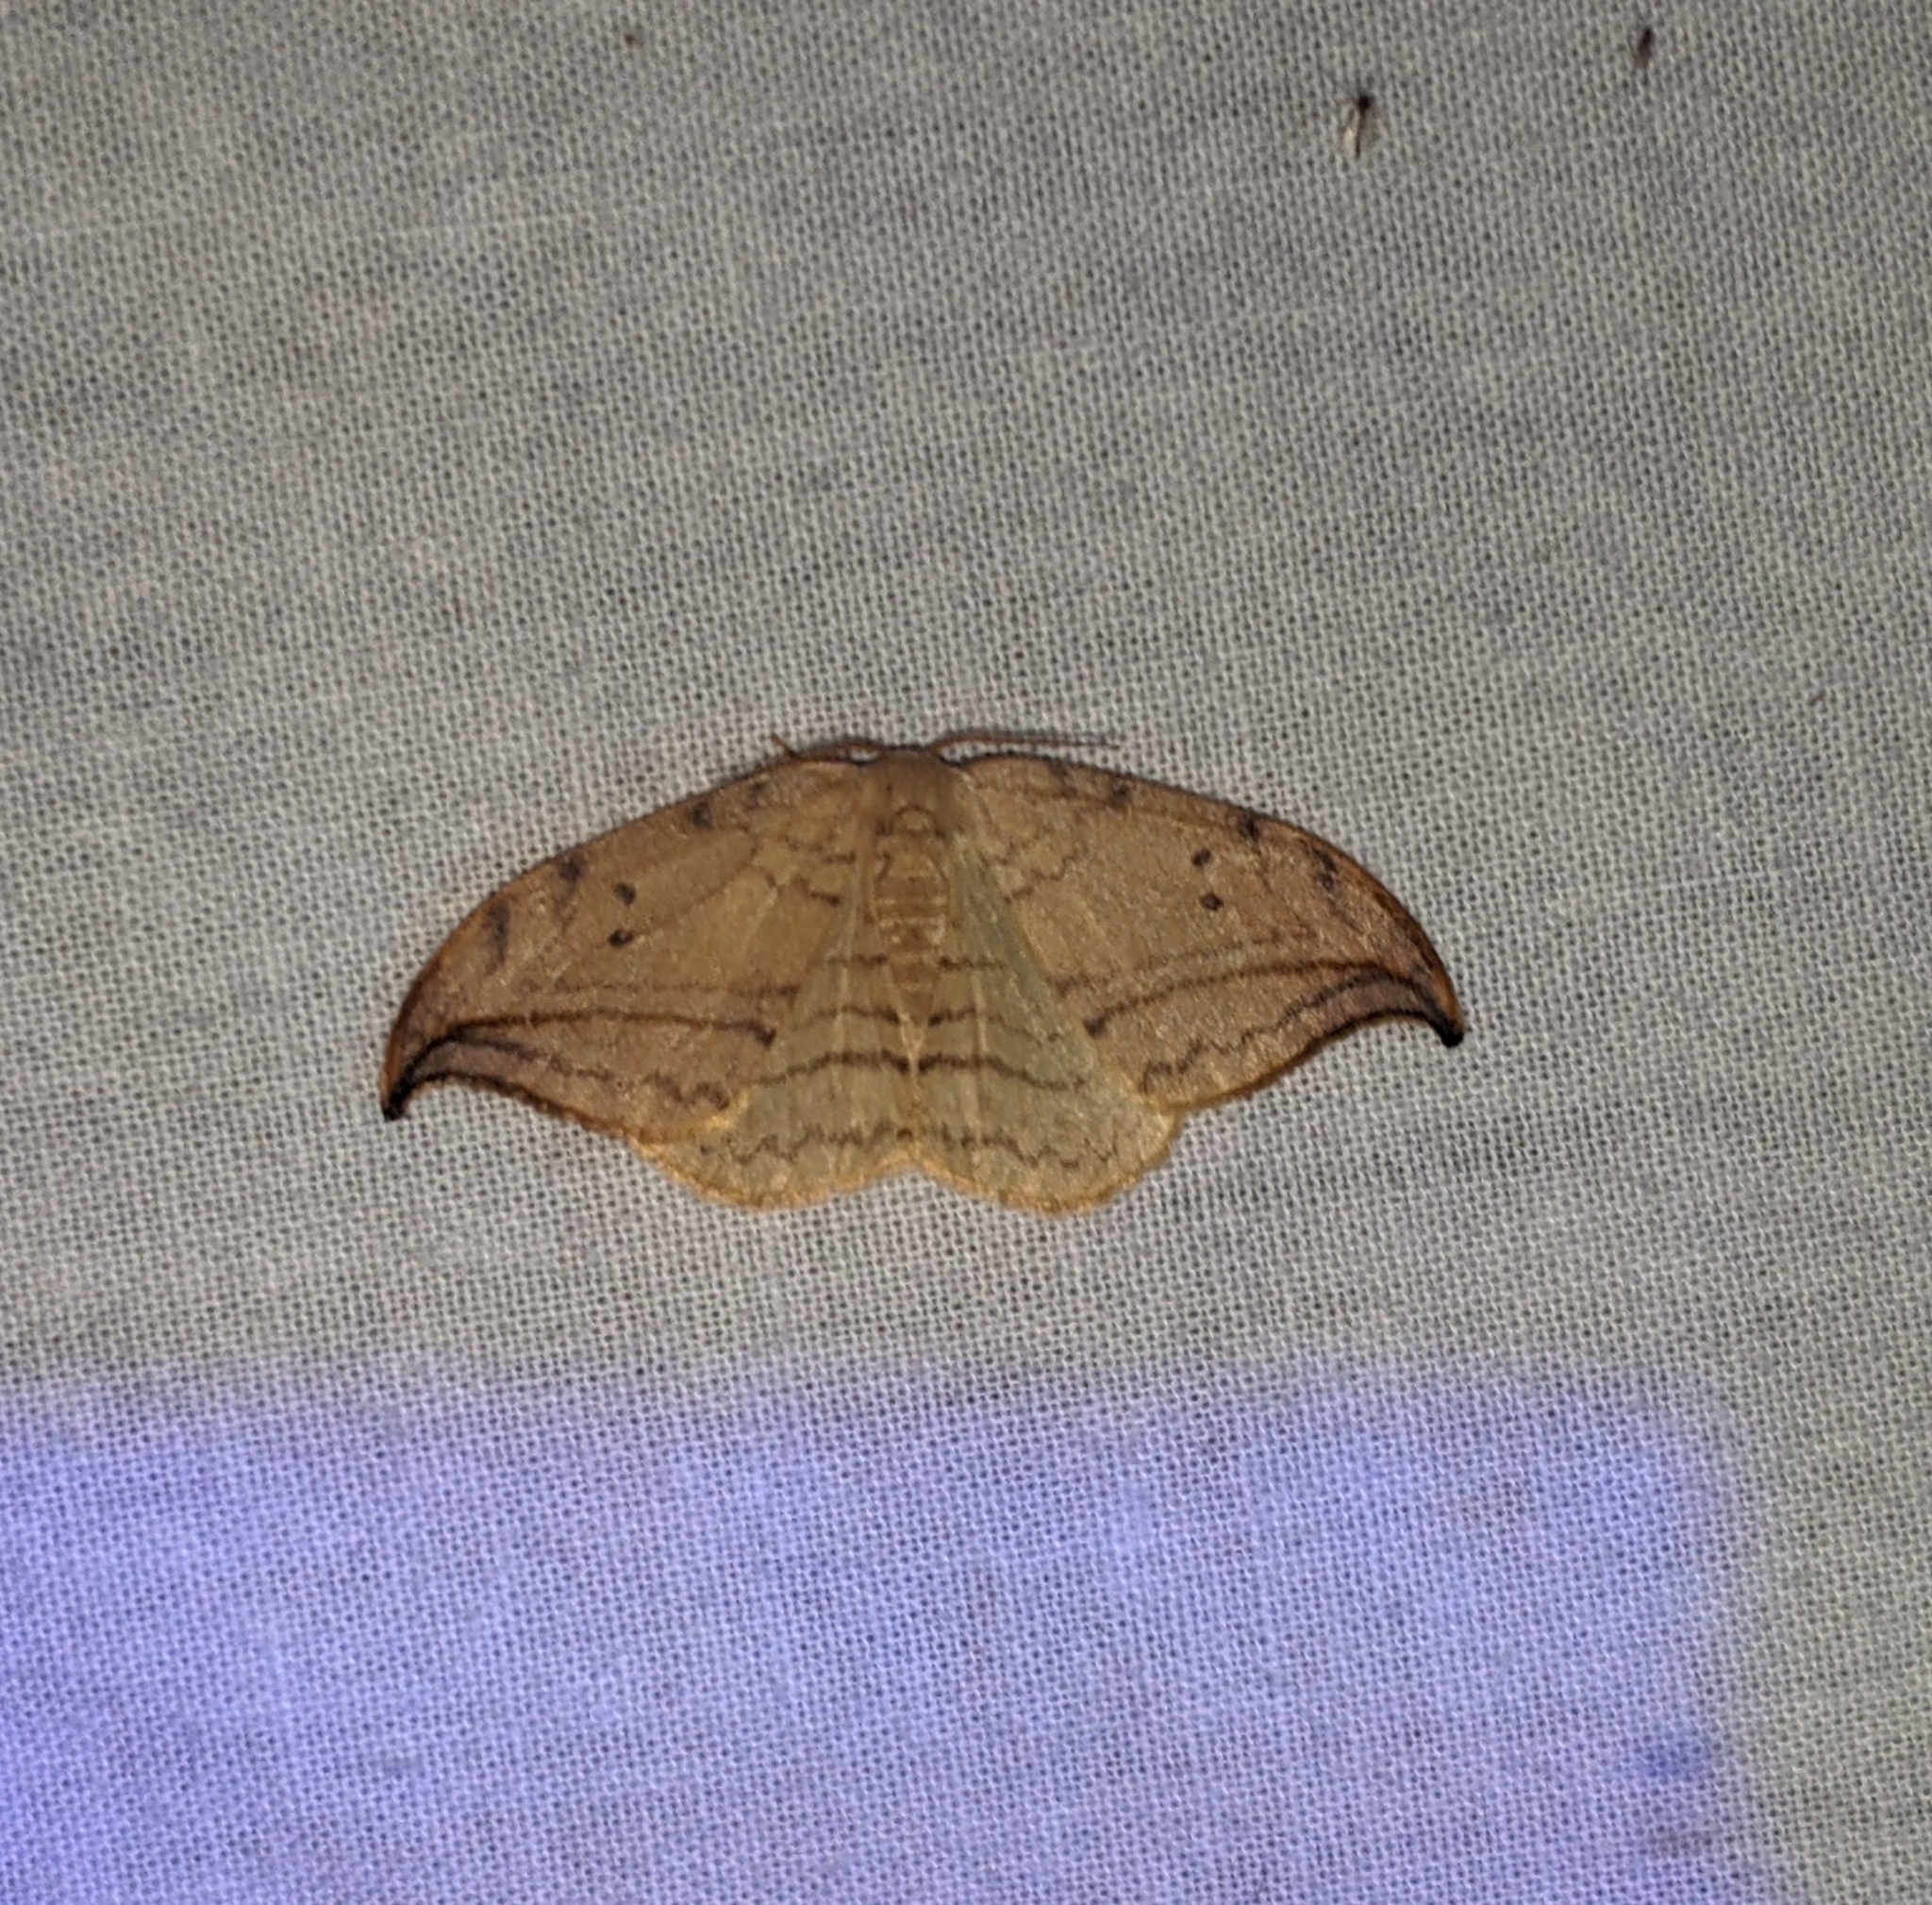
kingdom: Animalia
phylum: Arthropoda
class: Insecta
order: Lepidoptera
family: Drepanidae
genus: Drepana
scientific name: Drepana arcuata
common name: Arched hooktip moth
